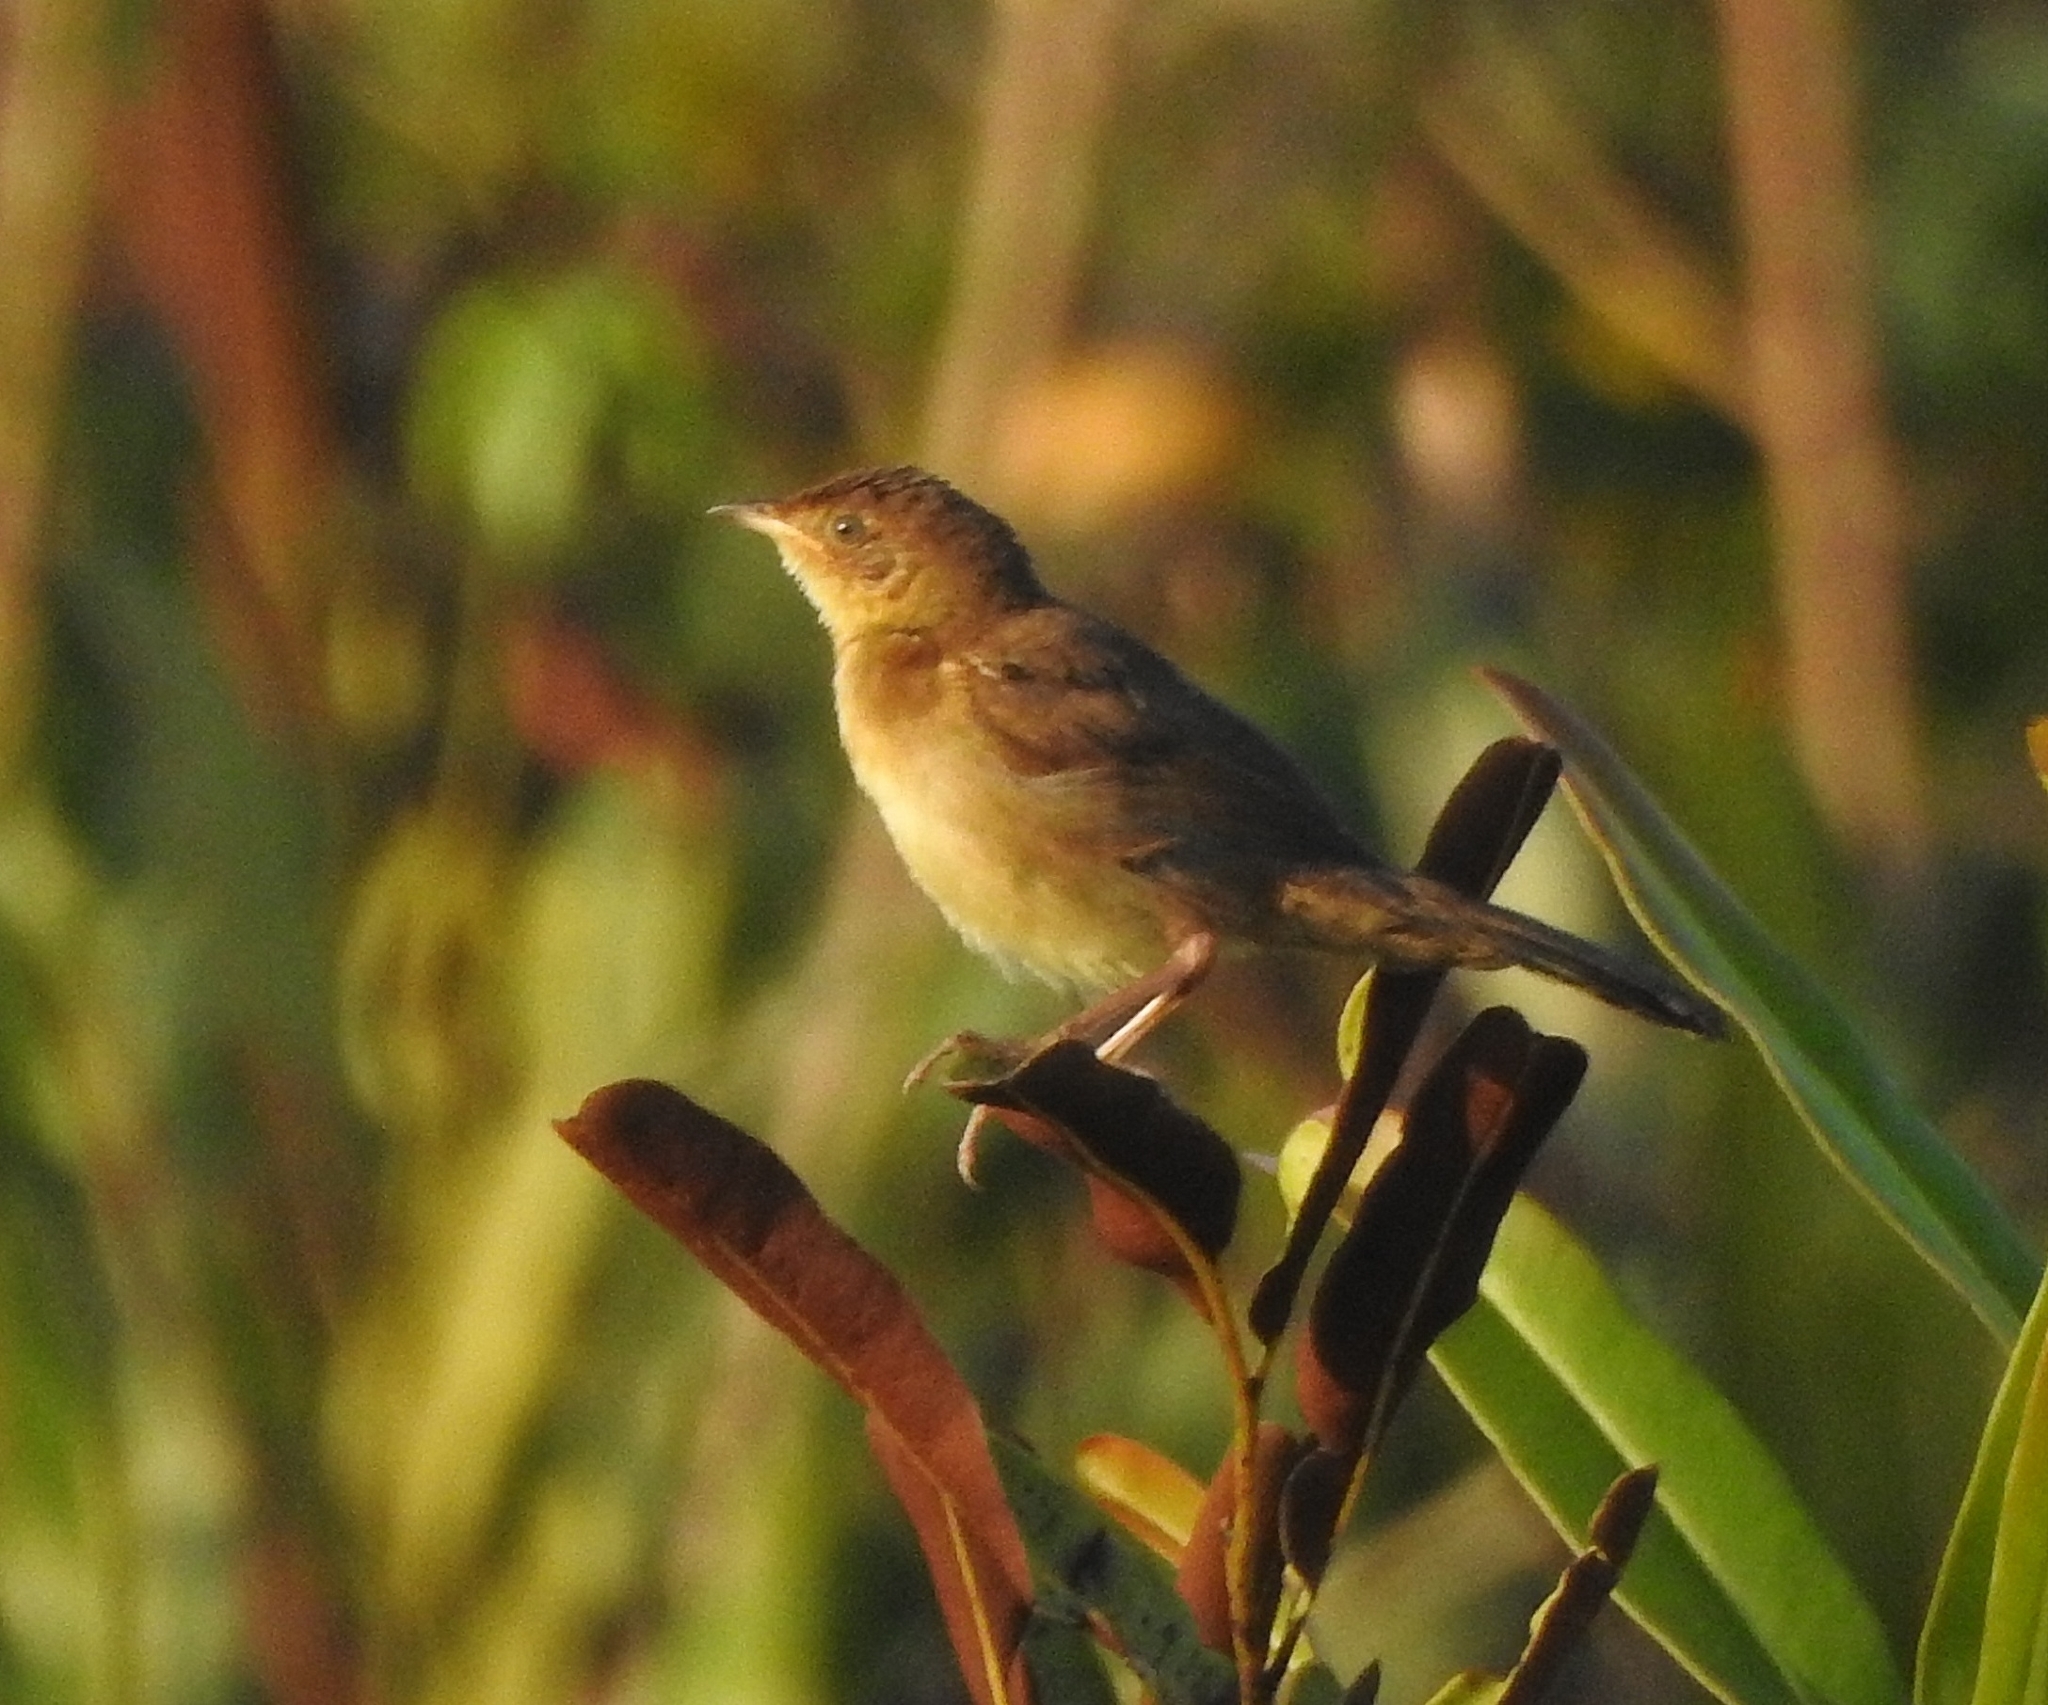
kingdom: Animalia
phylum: Chordata
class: Aves
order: Passeriformes
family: Locustellidae
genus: Schoenicola
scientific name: Schoenicola platyurus
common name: Broad-tailed grassbird
